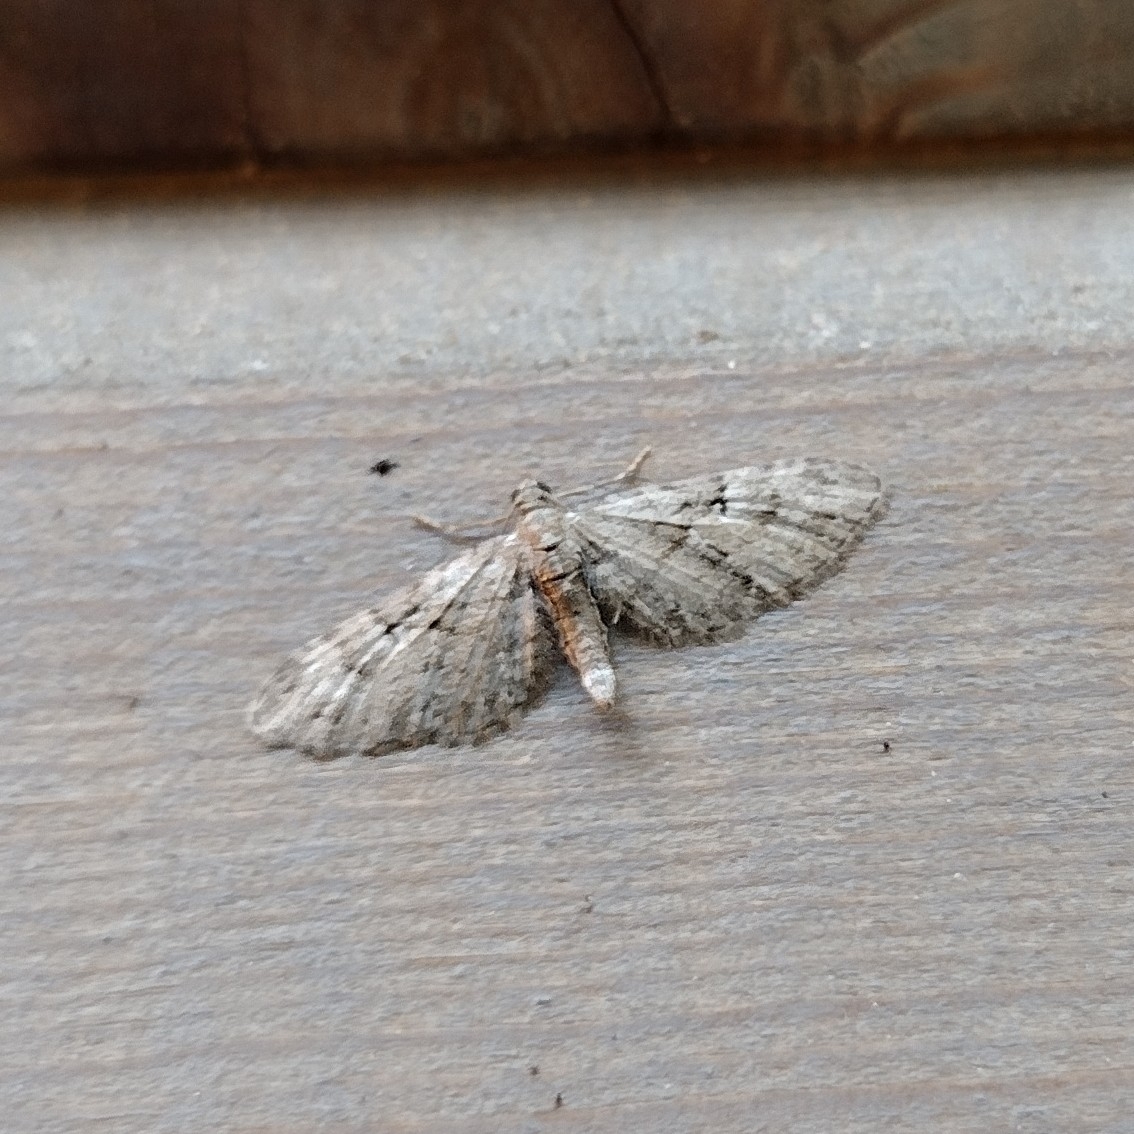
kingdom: Animalia
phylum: Arthropoda
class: Insecta
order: Lepidoptera
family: Geometridae
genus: Eupithecia
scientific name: Eupithecia pusillata
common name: Juniper pug
